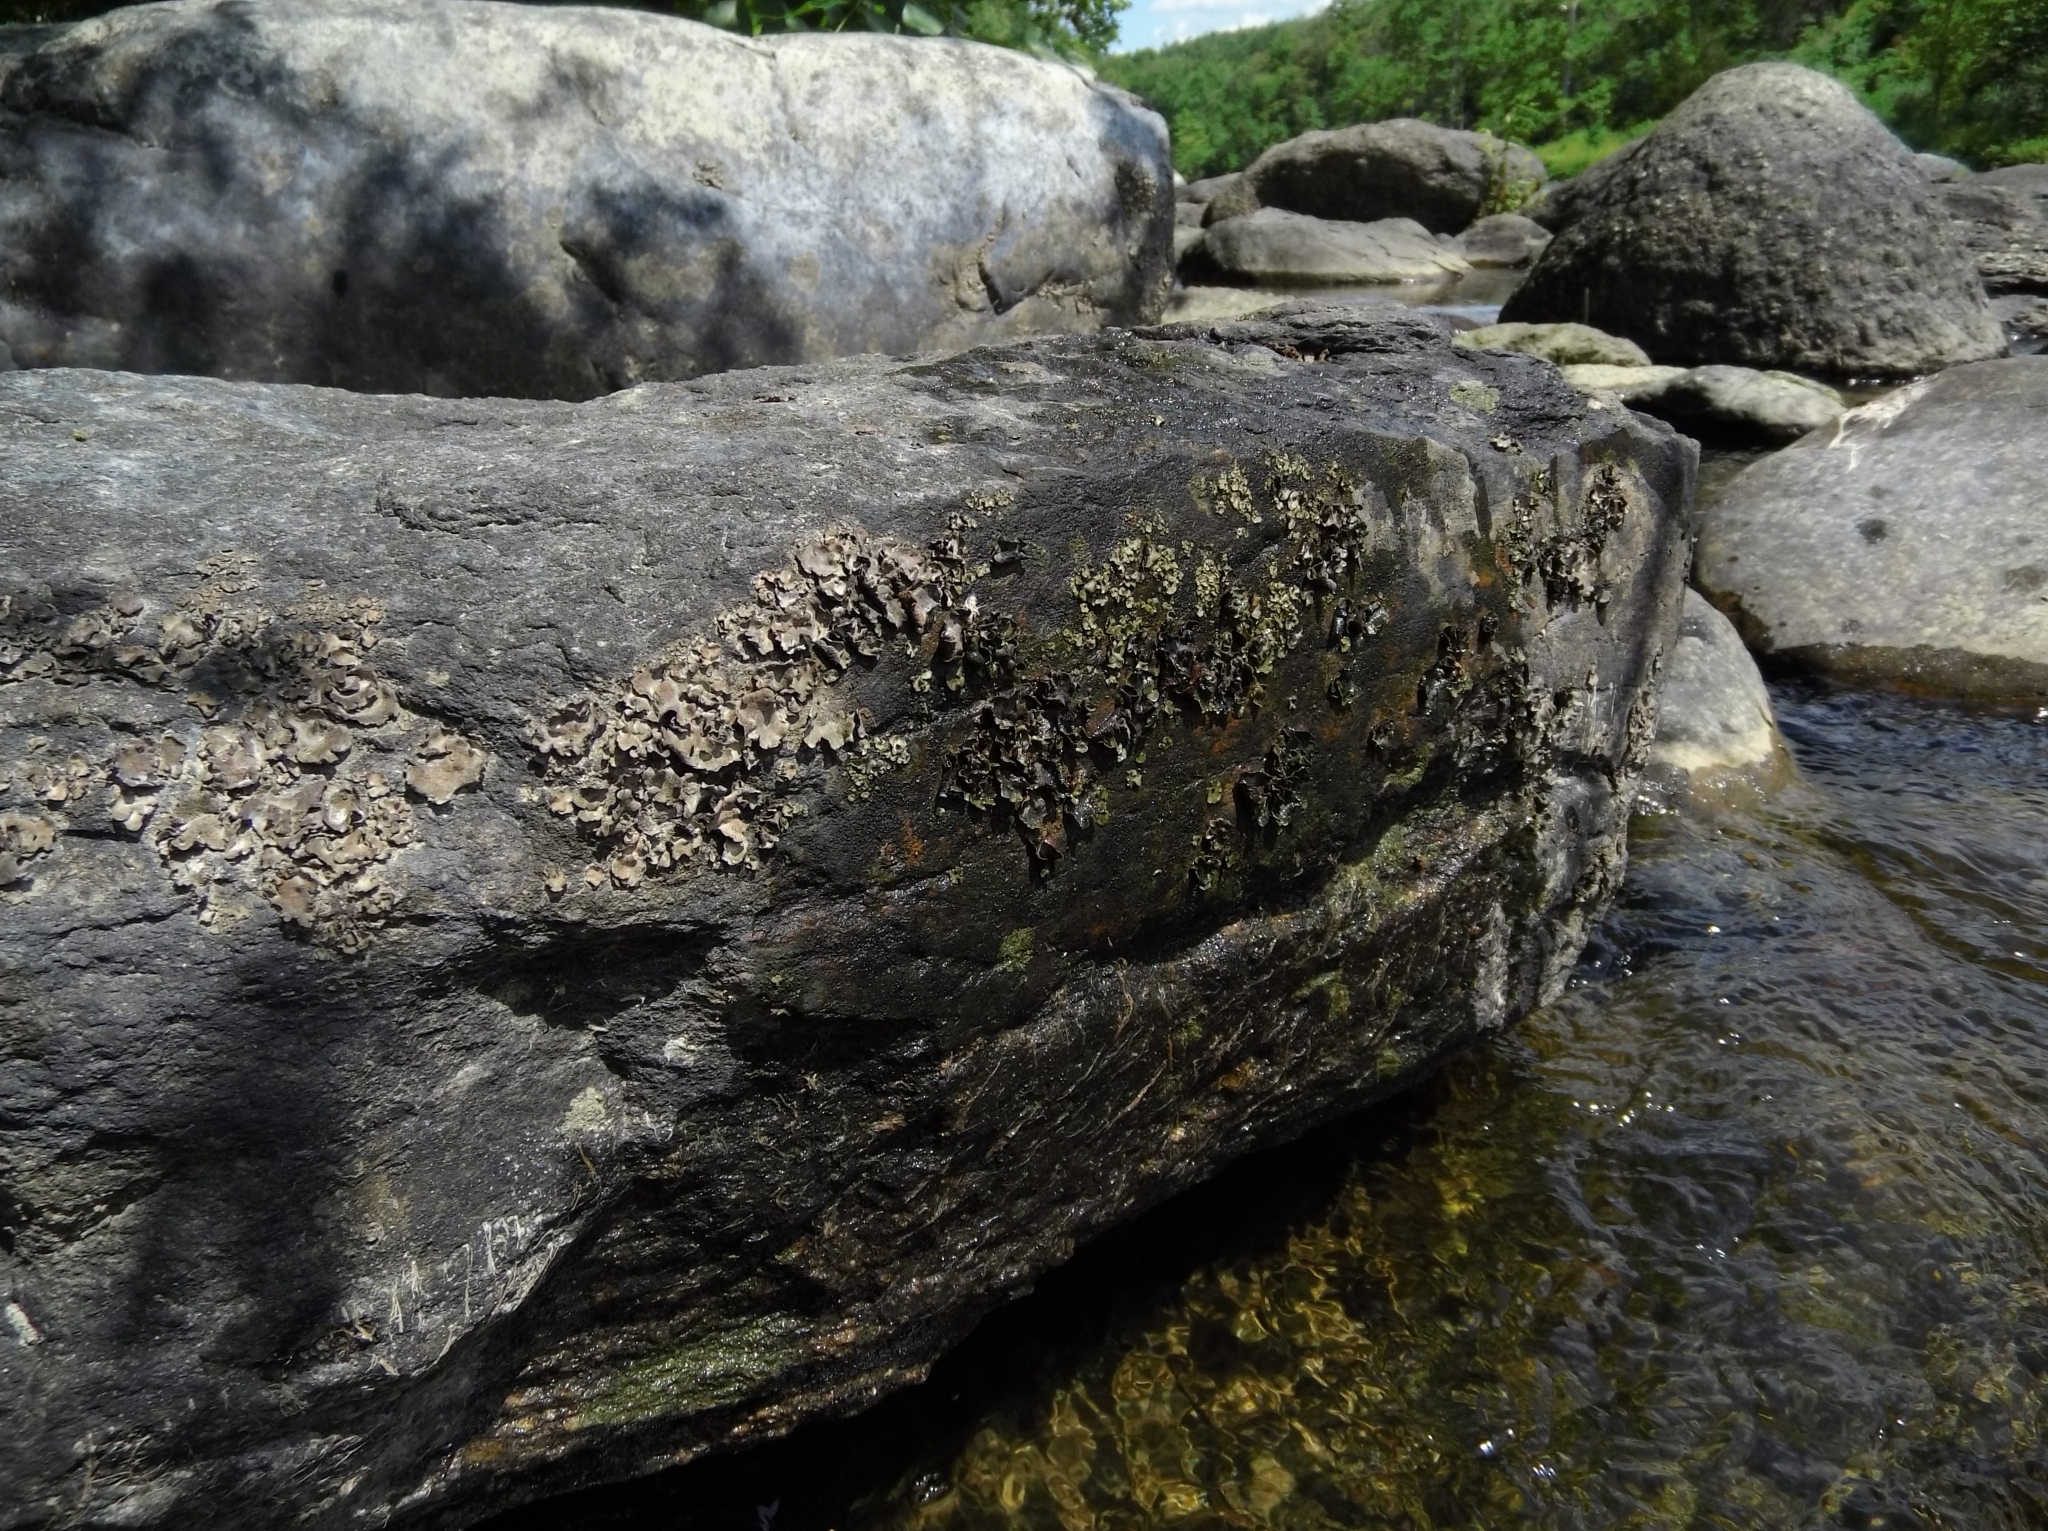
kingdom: Fungi
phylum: Ascomycota
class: Eurotiomycetes
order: Verrucariales
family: Verrucariaceae
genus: Dermatocarpon
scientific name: Dermatocarpon luridum
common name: Brook stippleback lichen
